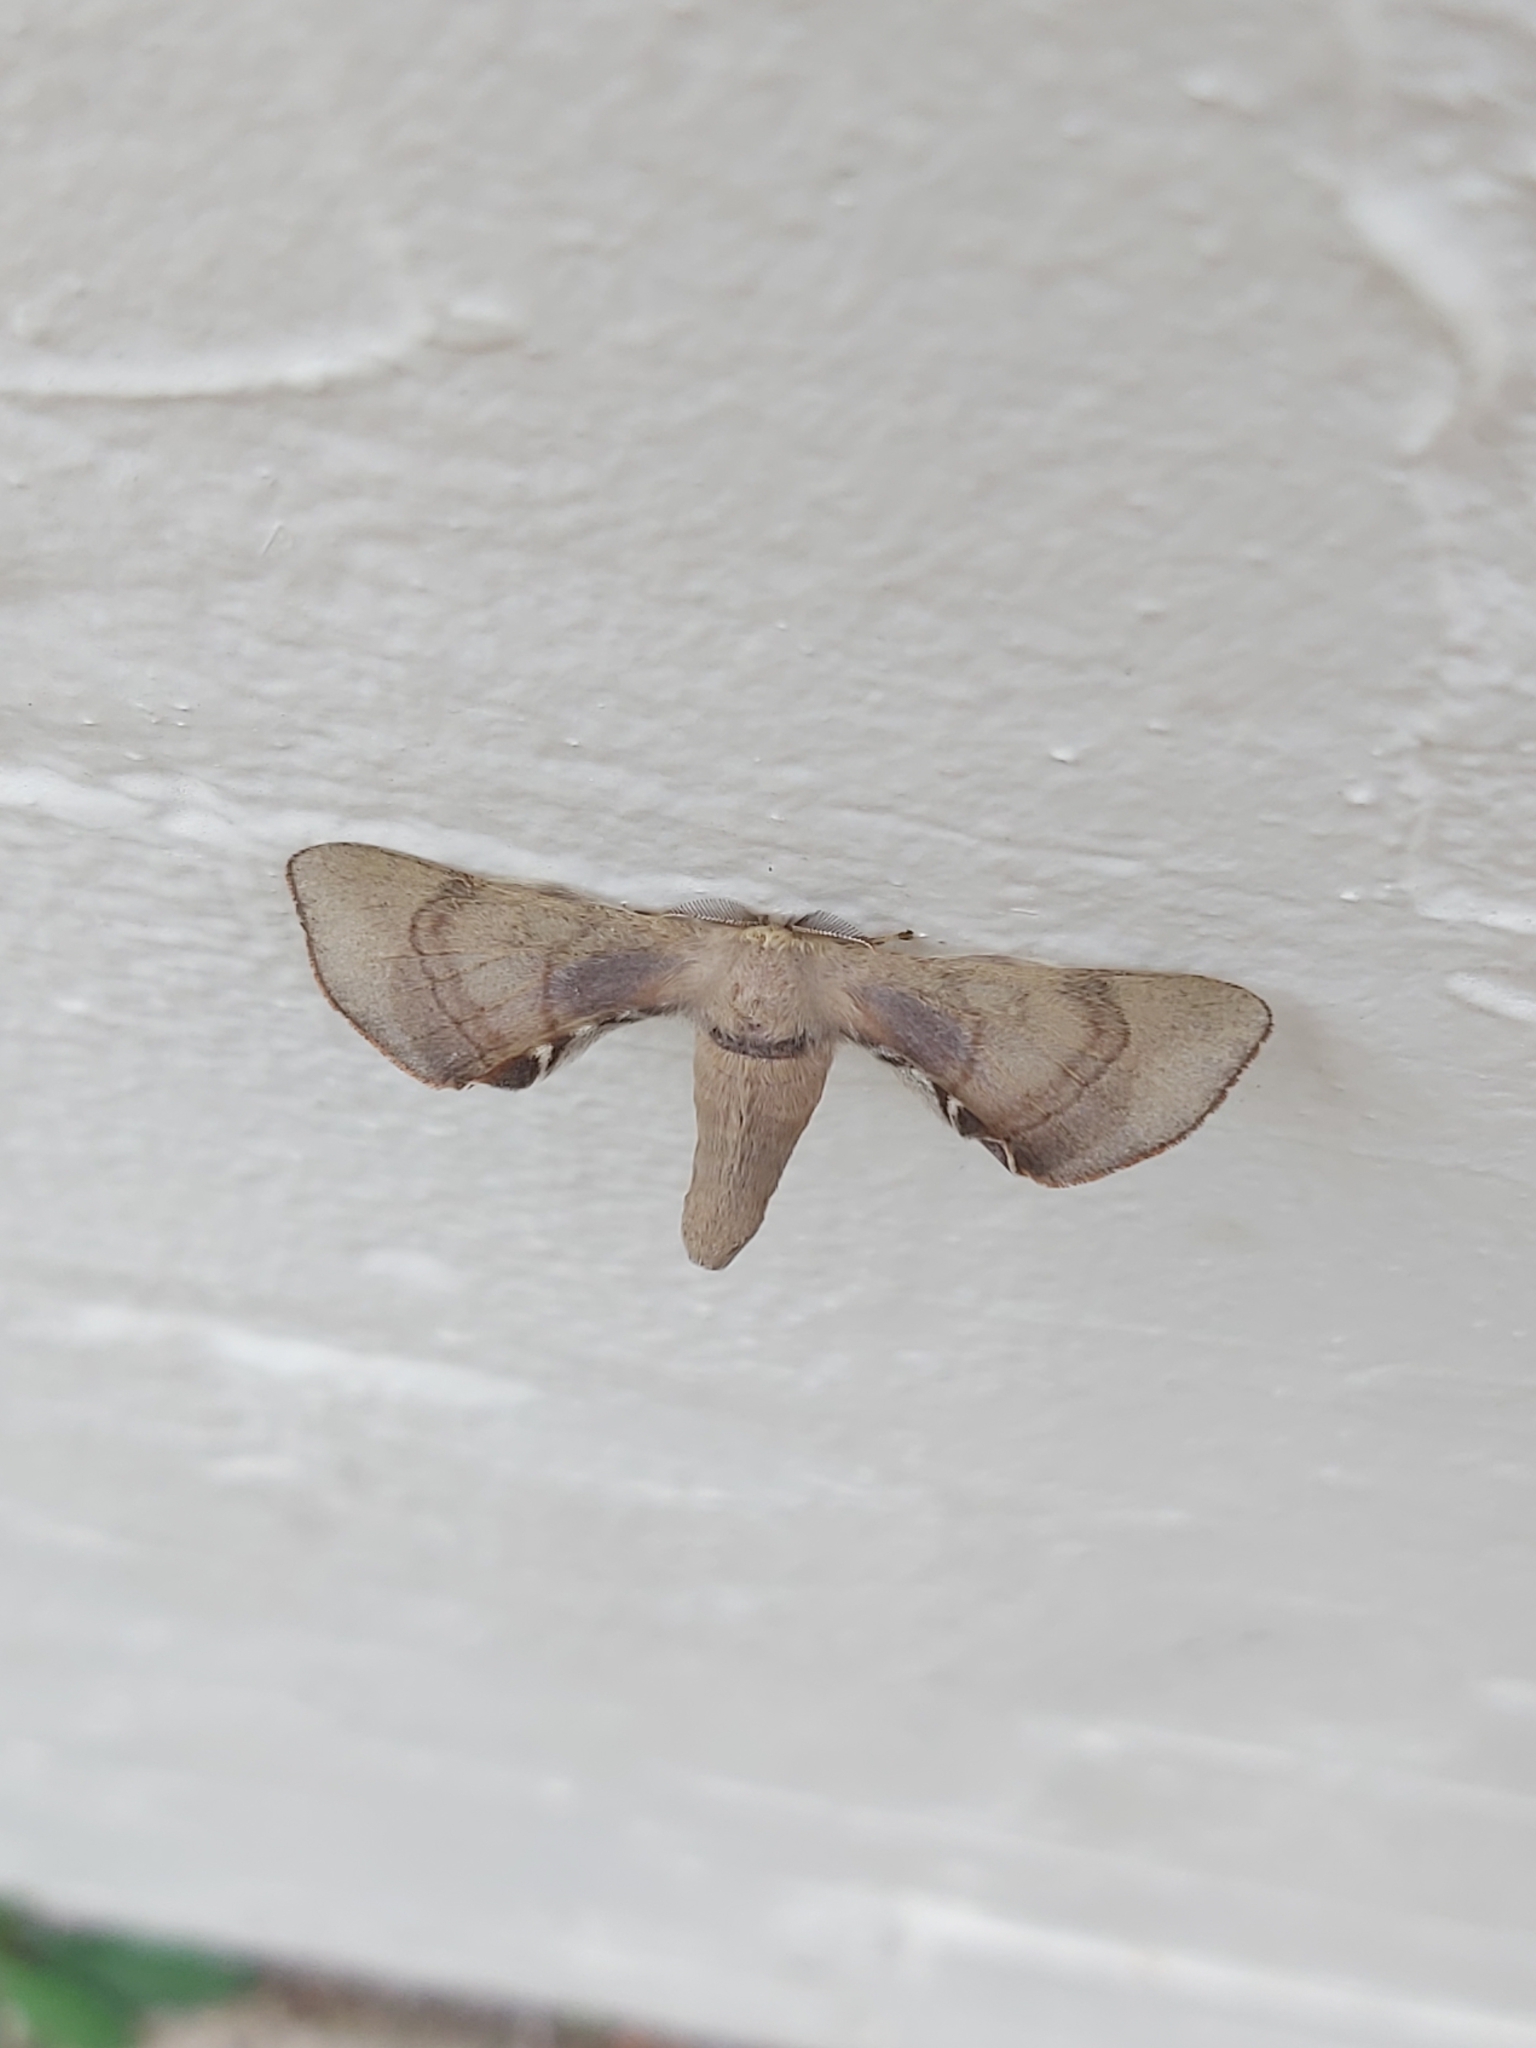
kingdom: Animalia
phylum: Arthropoda
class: Insecta
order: Lepidoptera
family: Bombycidae
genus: Gastridiota
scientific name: Gastridiota adoxima
